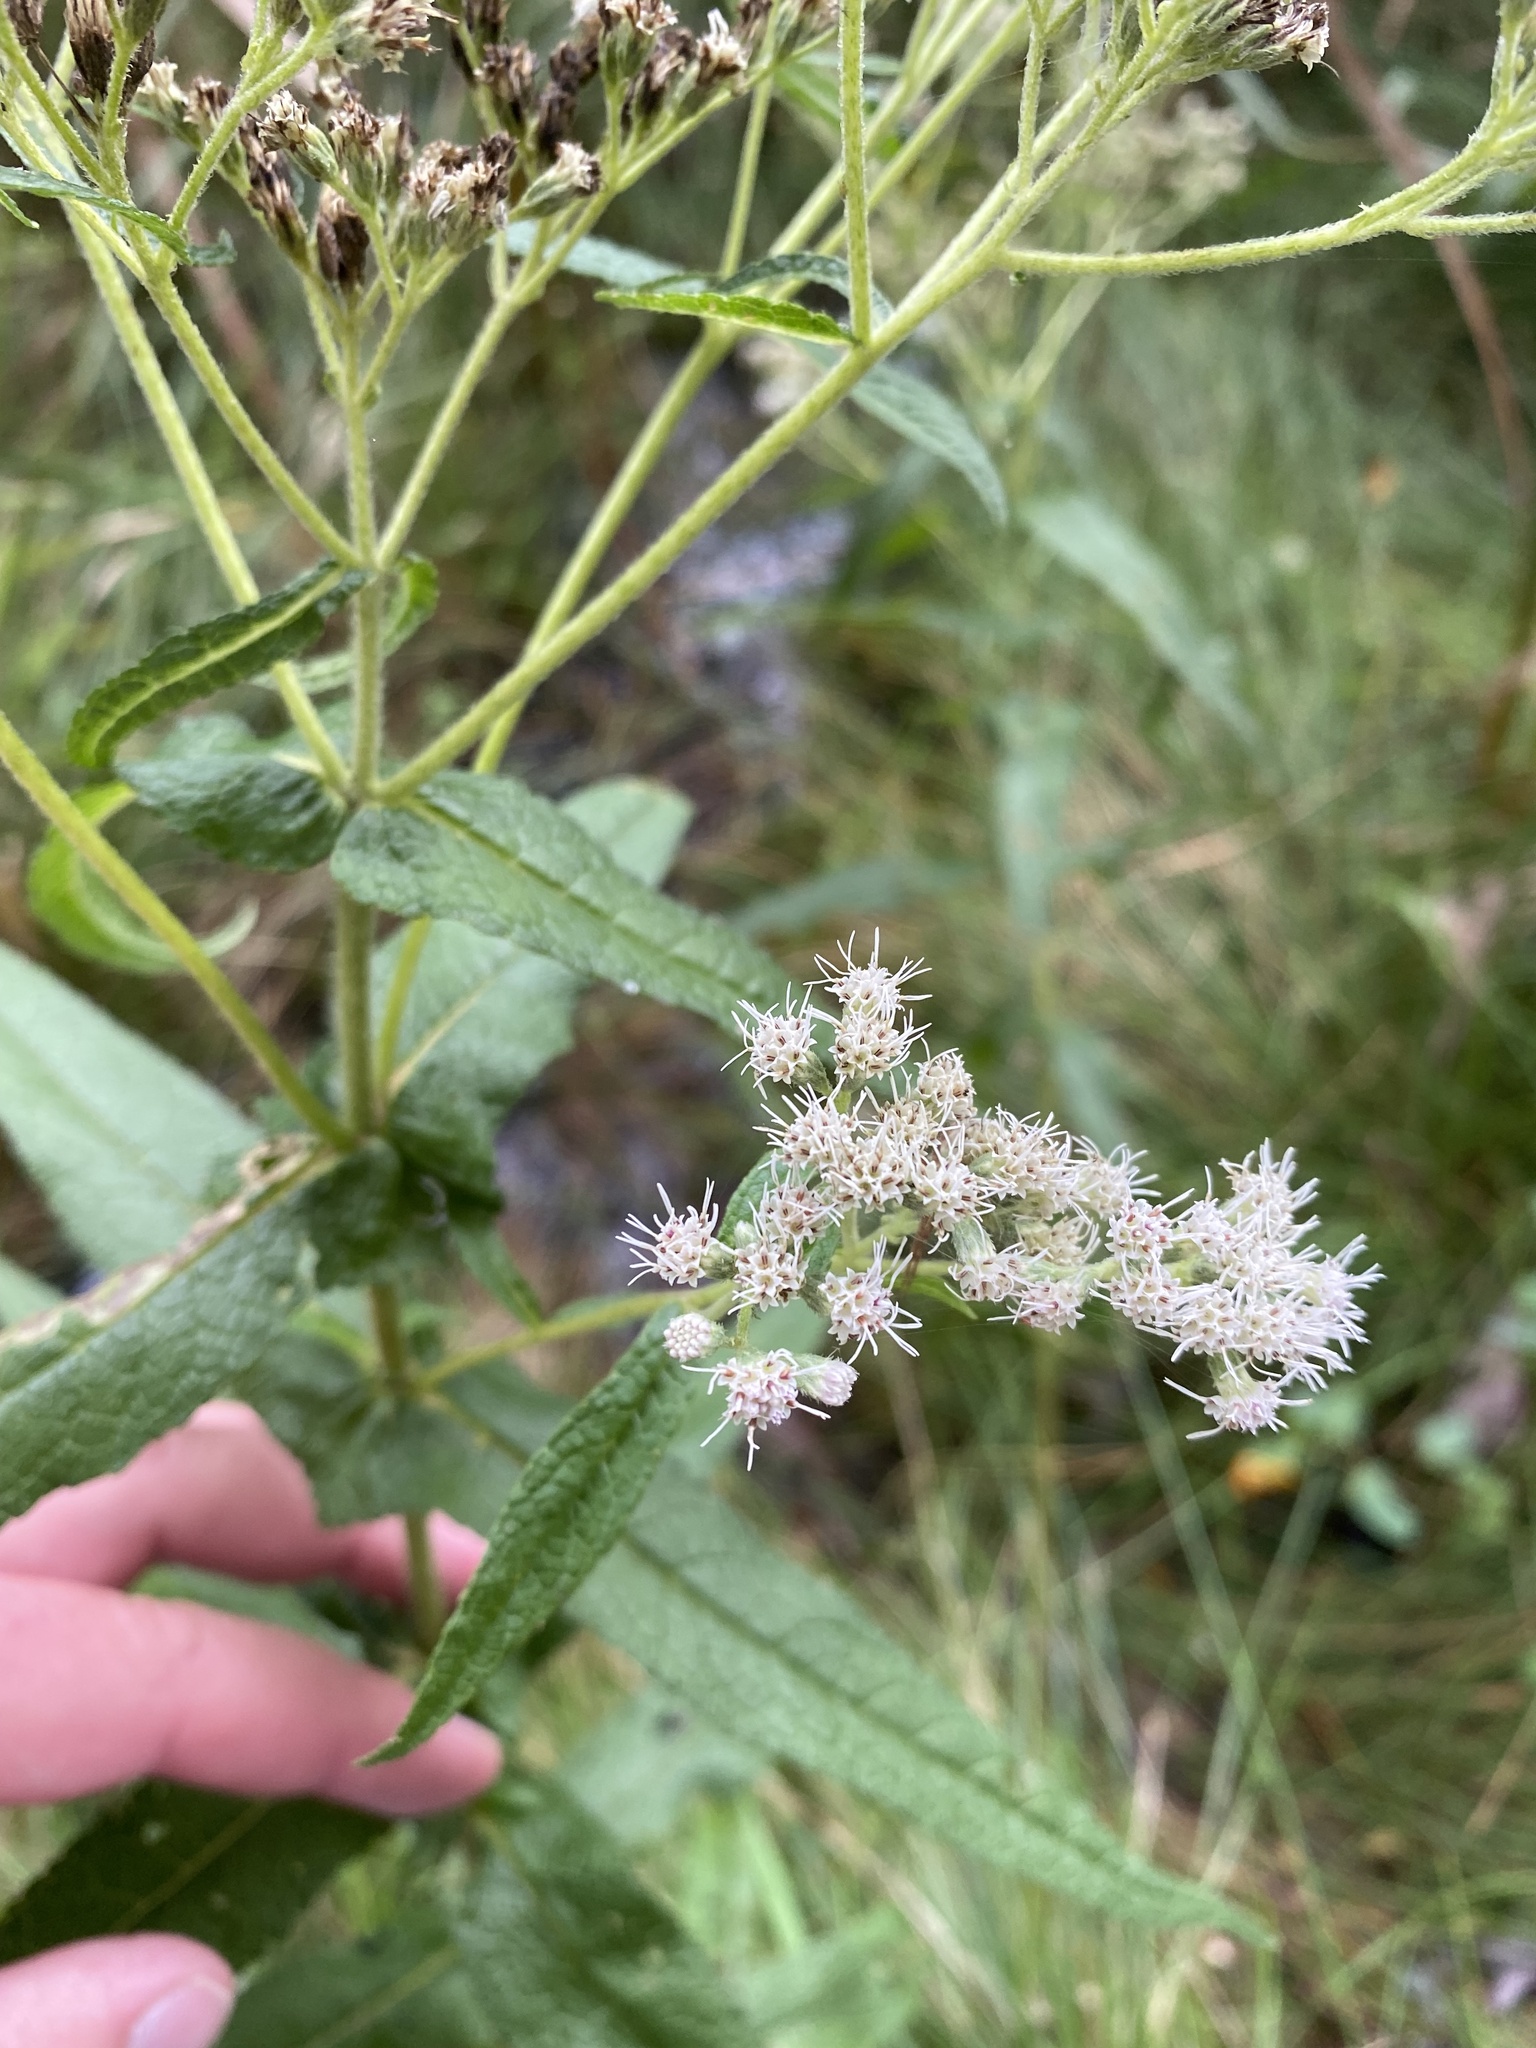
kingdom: Plantae
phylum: Tracheophyta
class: Magnoliopsida
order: Asterales
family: Asteraceae
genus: Eupatorium
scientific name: Eupatorium perfoliatum
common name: Boneset
